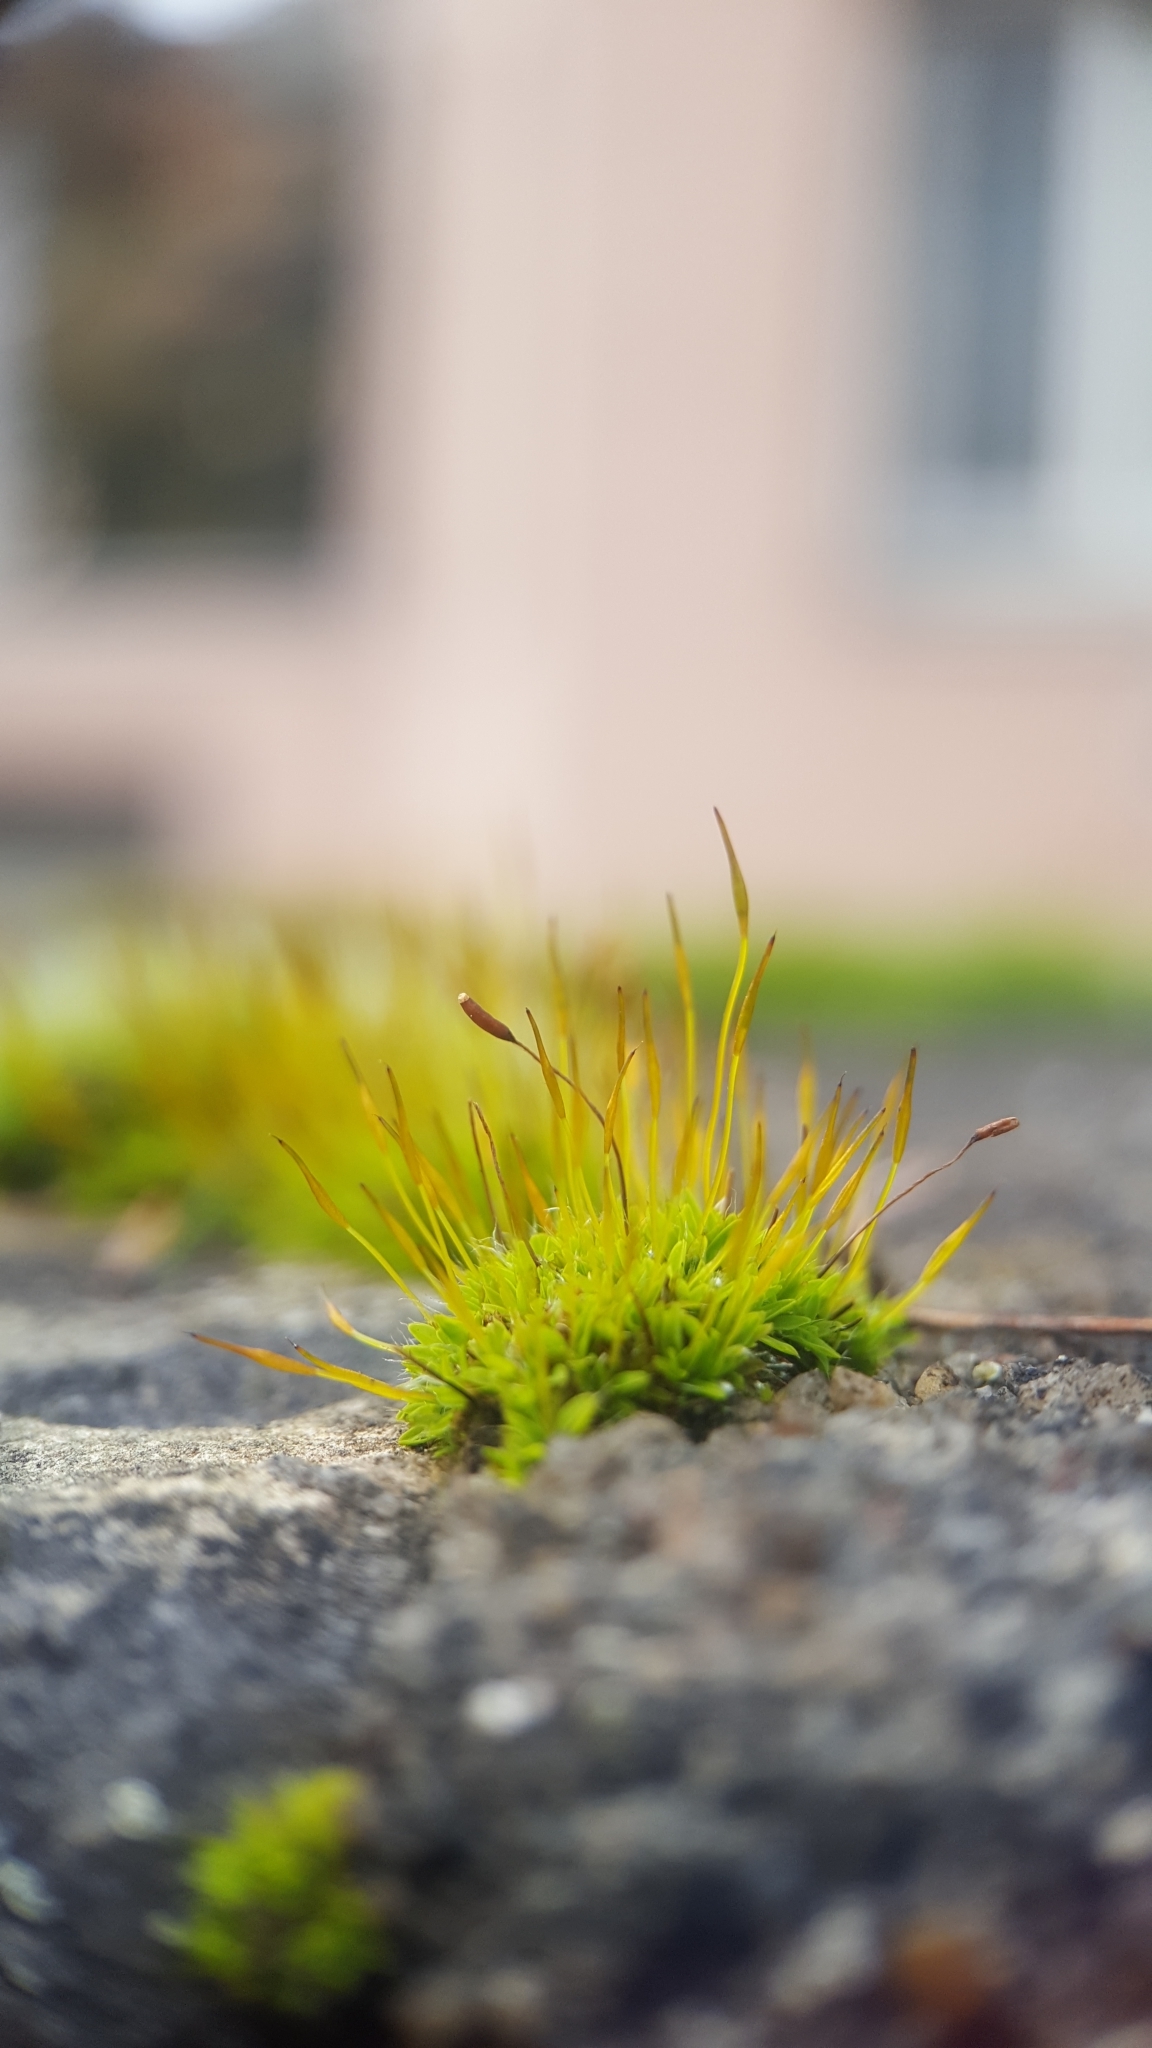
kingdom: Plantae
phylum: Bryophyta
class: Bryopsida
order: Pottiales
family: Pottiaceae
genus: Tortula
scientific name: Tortula muralis
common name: Wall screw-moss
